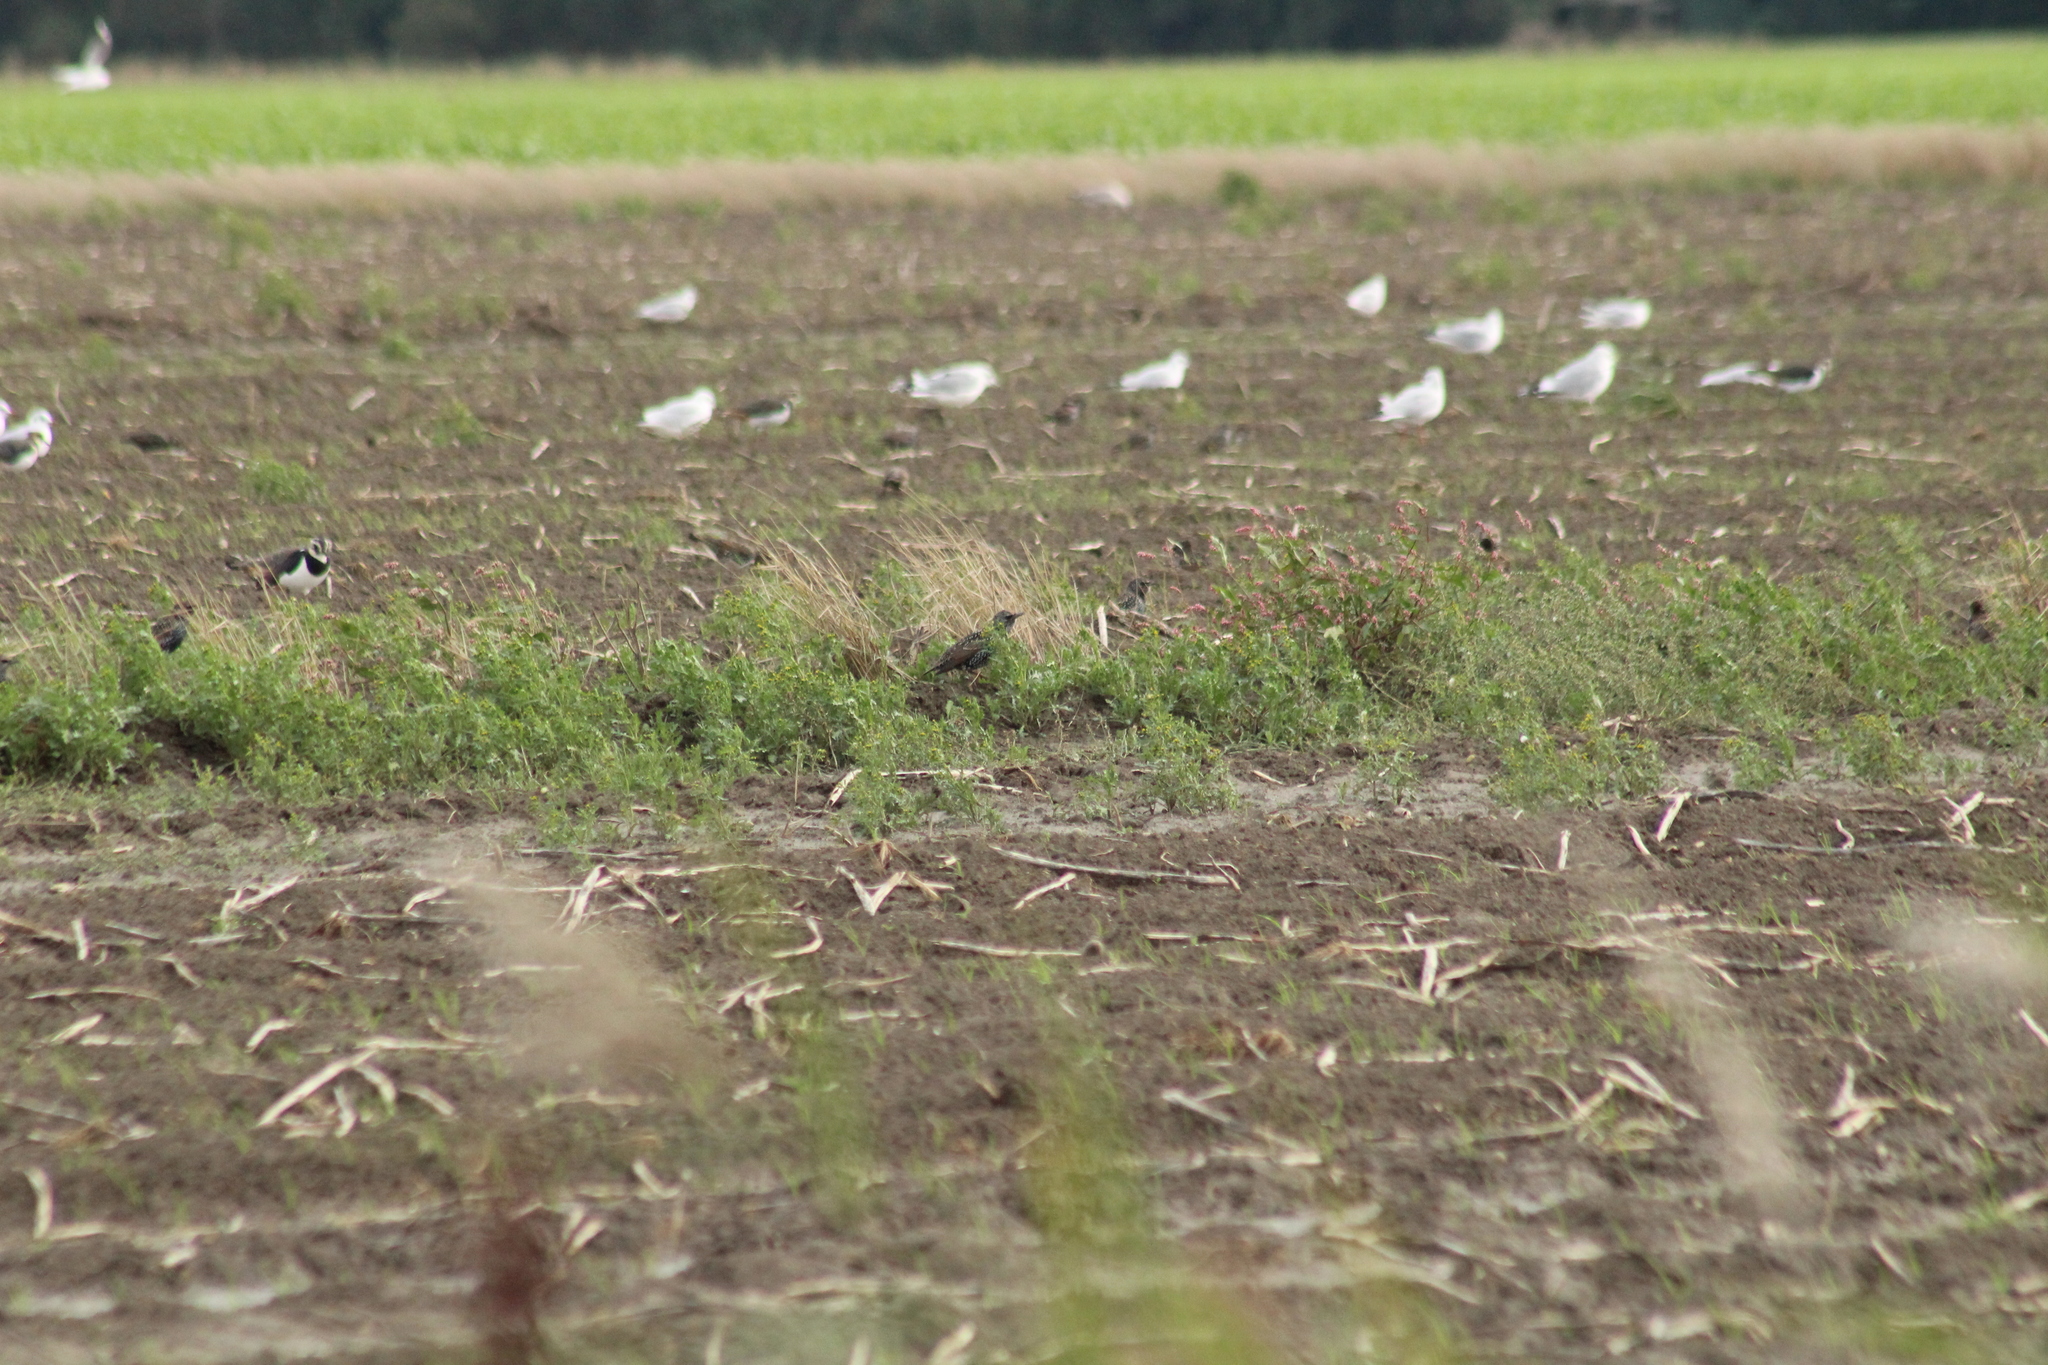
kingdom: Animalia
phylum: Chordata
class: Aves
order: Passeriformes
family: Sturnidae
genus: Sturnus
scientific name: Sturnus vulgaris
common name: Common starling
